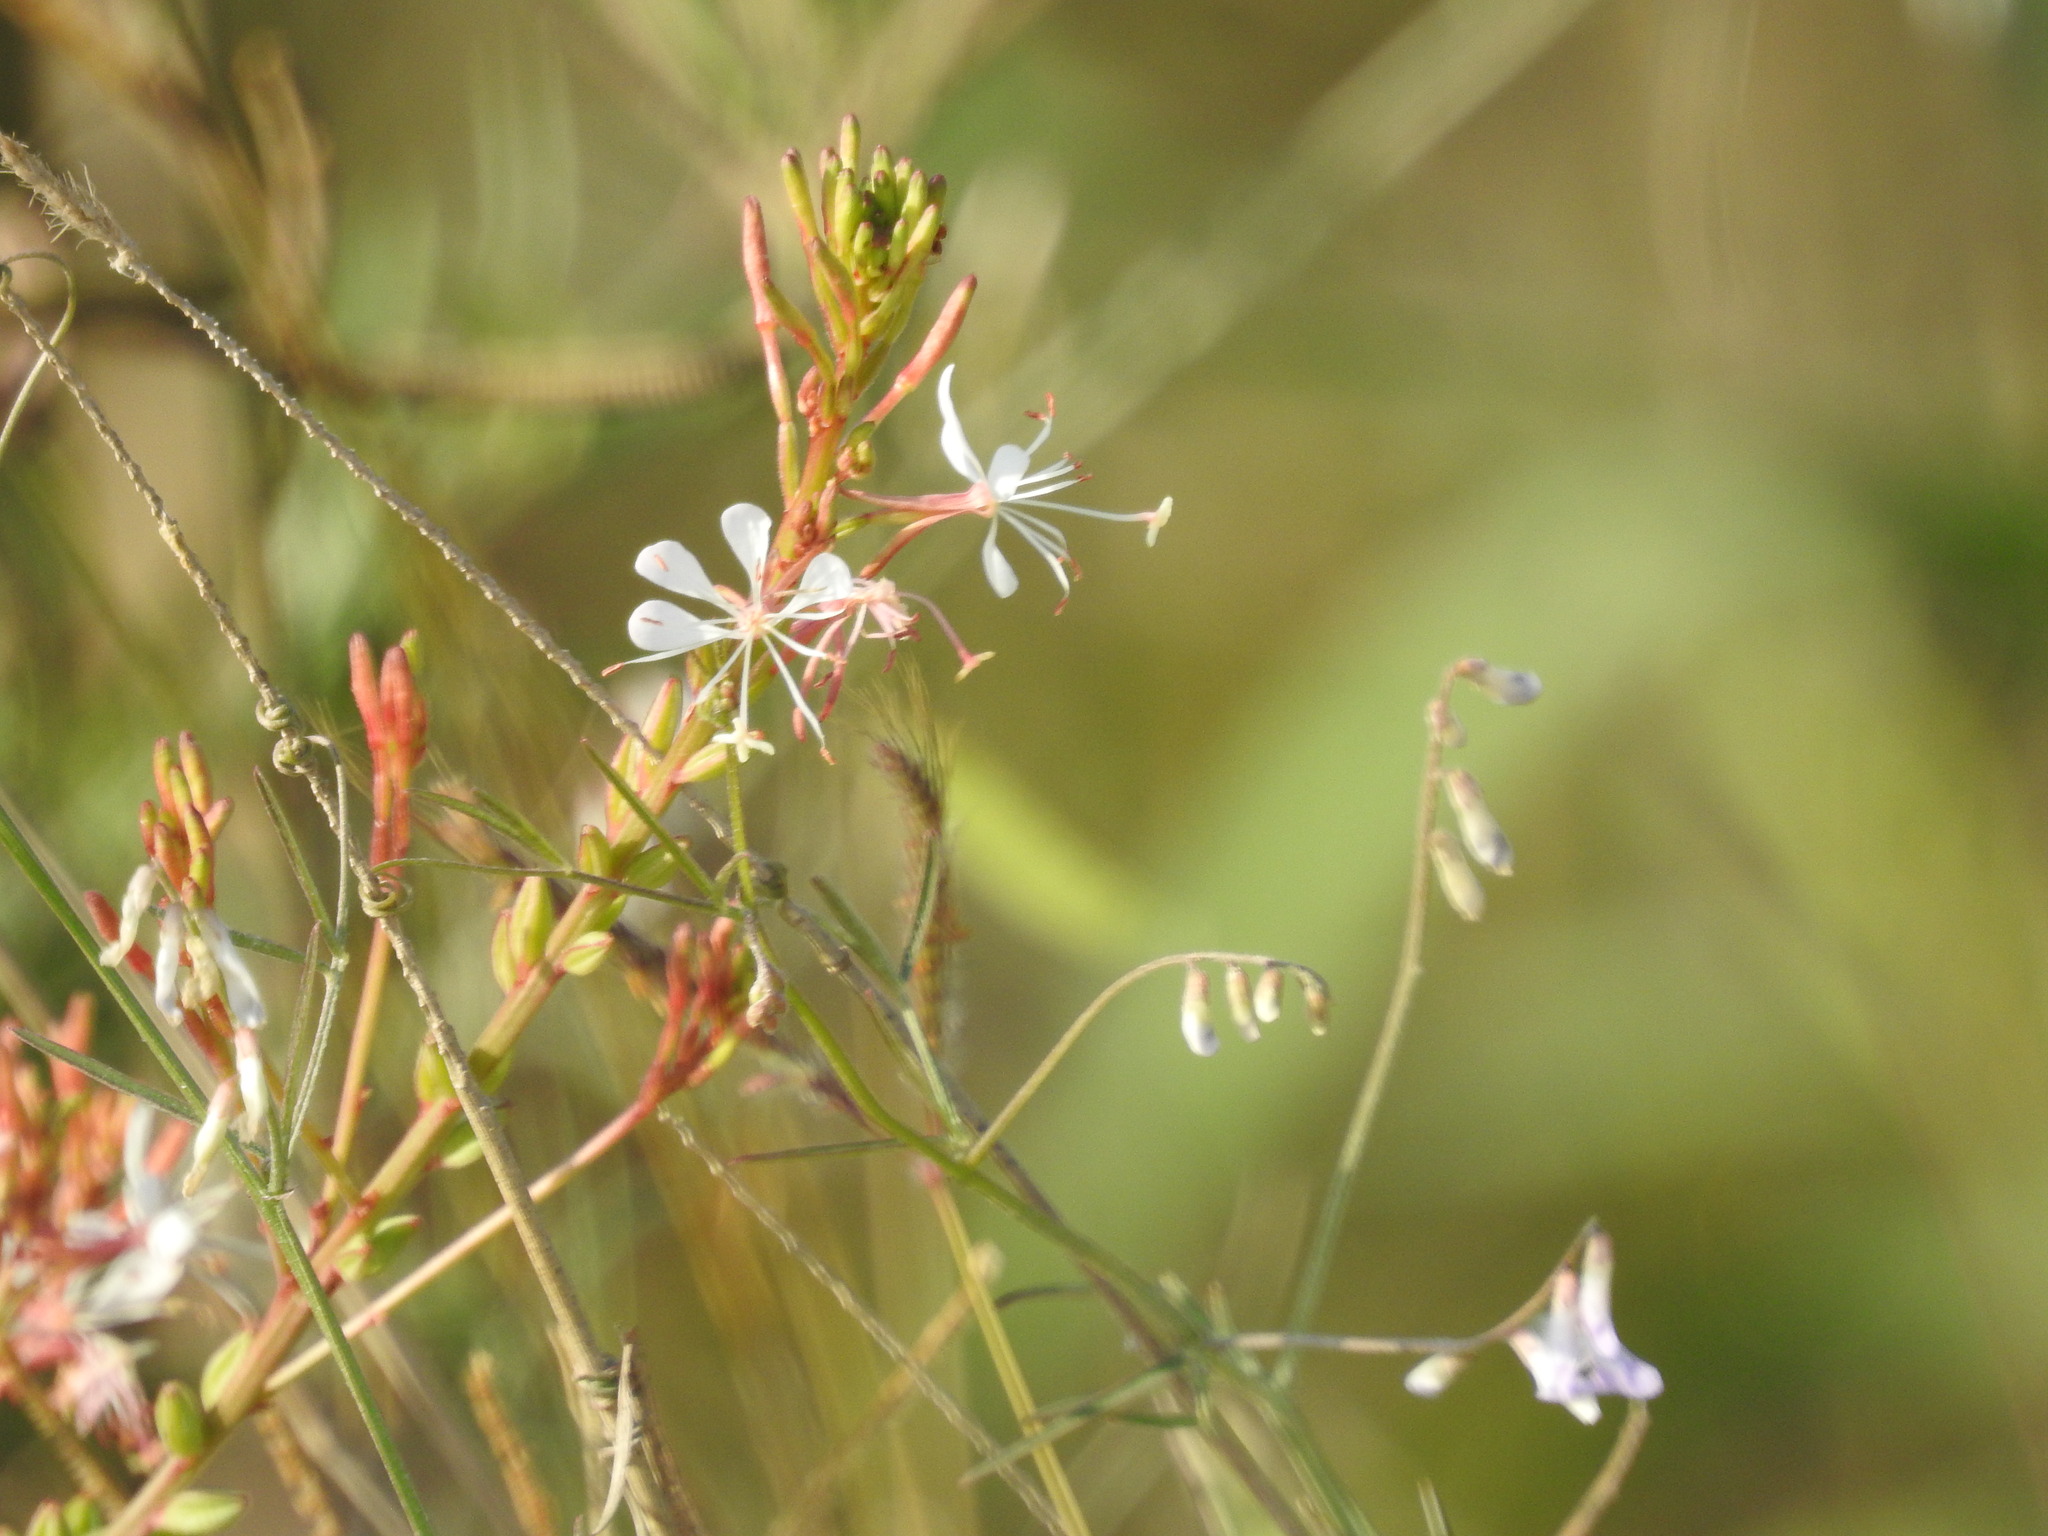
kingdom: Plantae
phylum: Tracheophyta
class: Magnoliopsida
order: Myrtales
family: Onagraceae
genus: Oenothera
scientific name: Oenothera simulans
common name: Southern beeblossom
